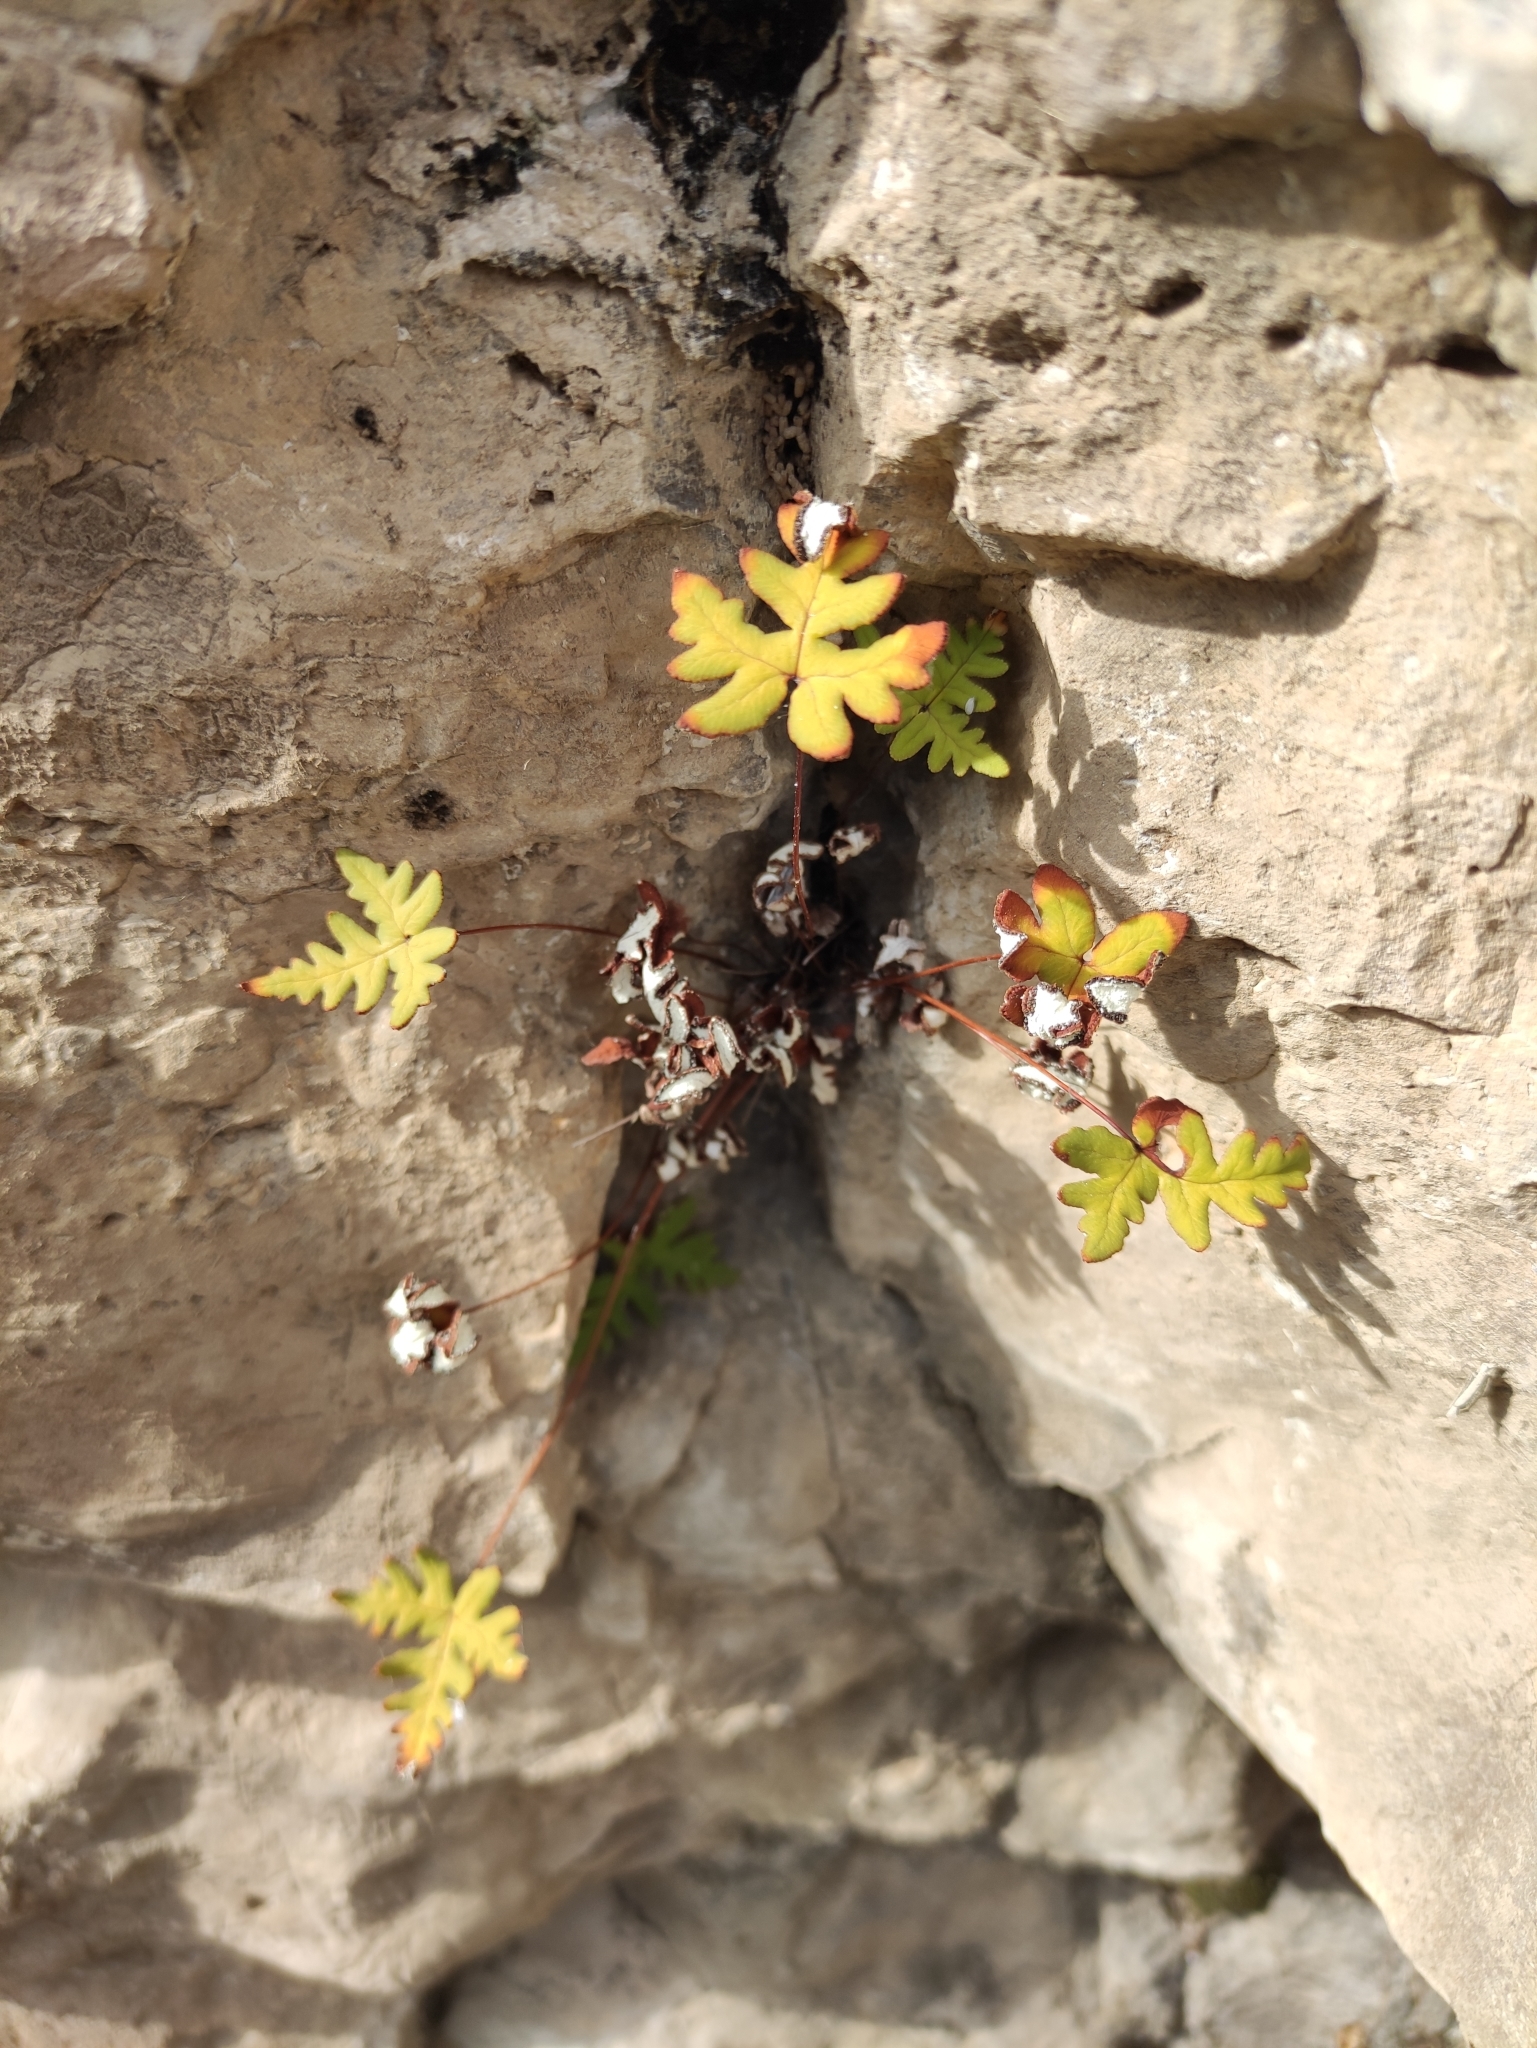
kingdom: Plantae
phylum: Tracheophyta
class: Polypodiopsida
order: Polypodiales
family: Pteridaceae
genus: Aleuritopteris
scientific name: Aleuritopteris argentea
